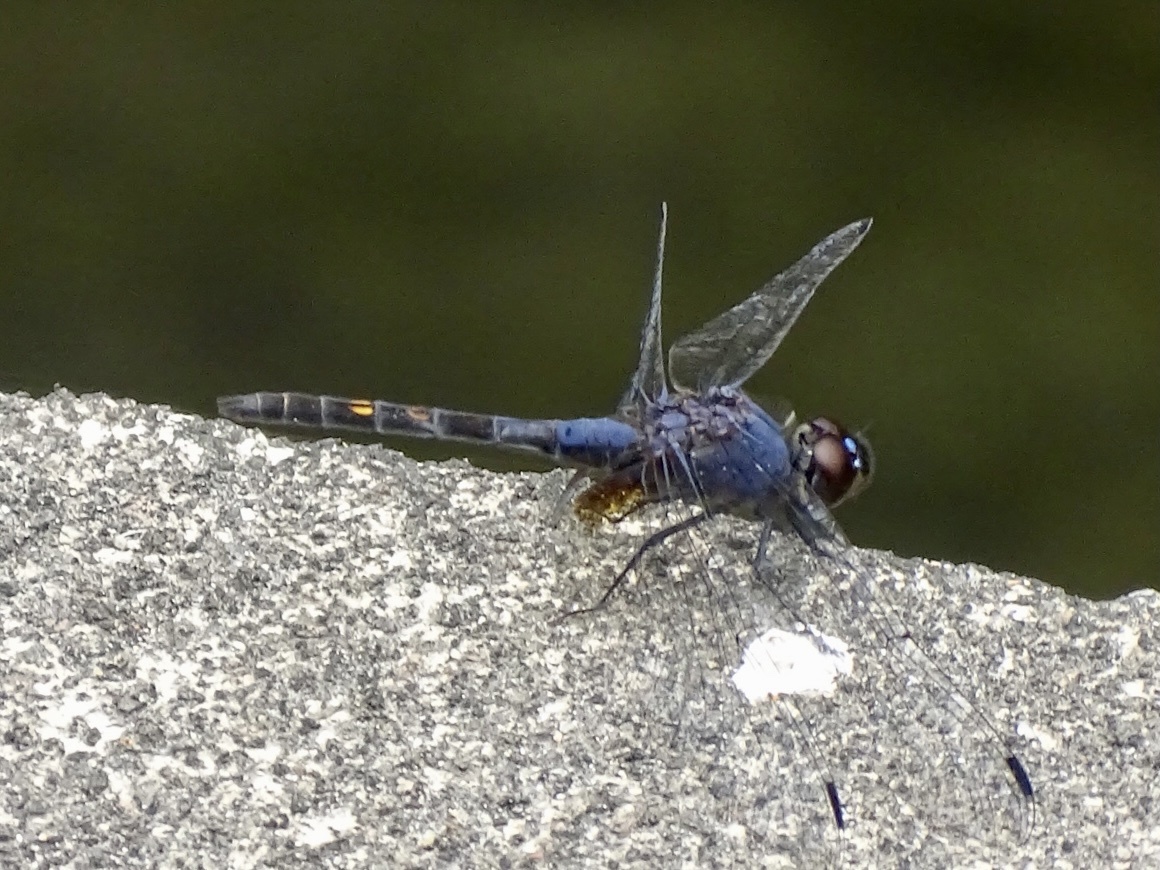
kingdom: Animalia
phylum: Arthropoda
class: Insecta
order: Odonata
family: Libellulidae
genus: Trithemis
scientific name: Trithemis festiva
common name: Indigo dropwing
